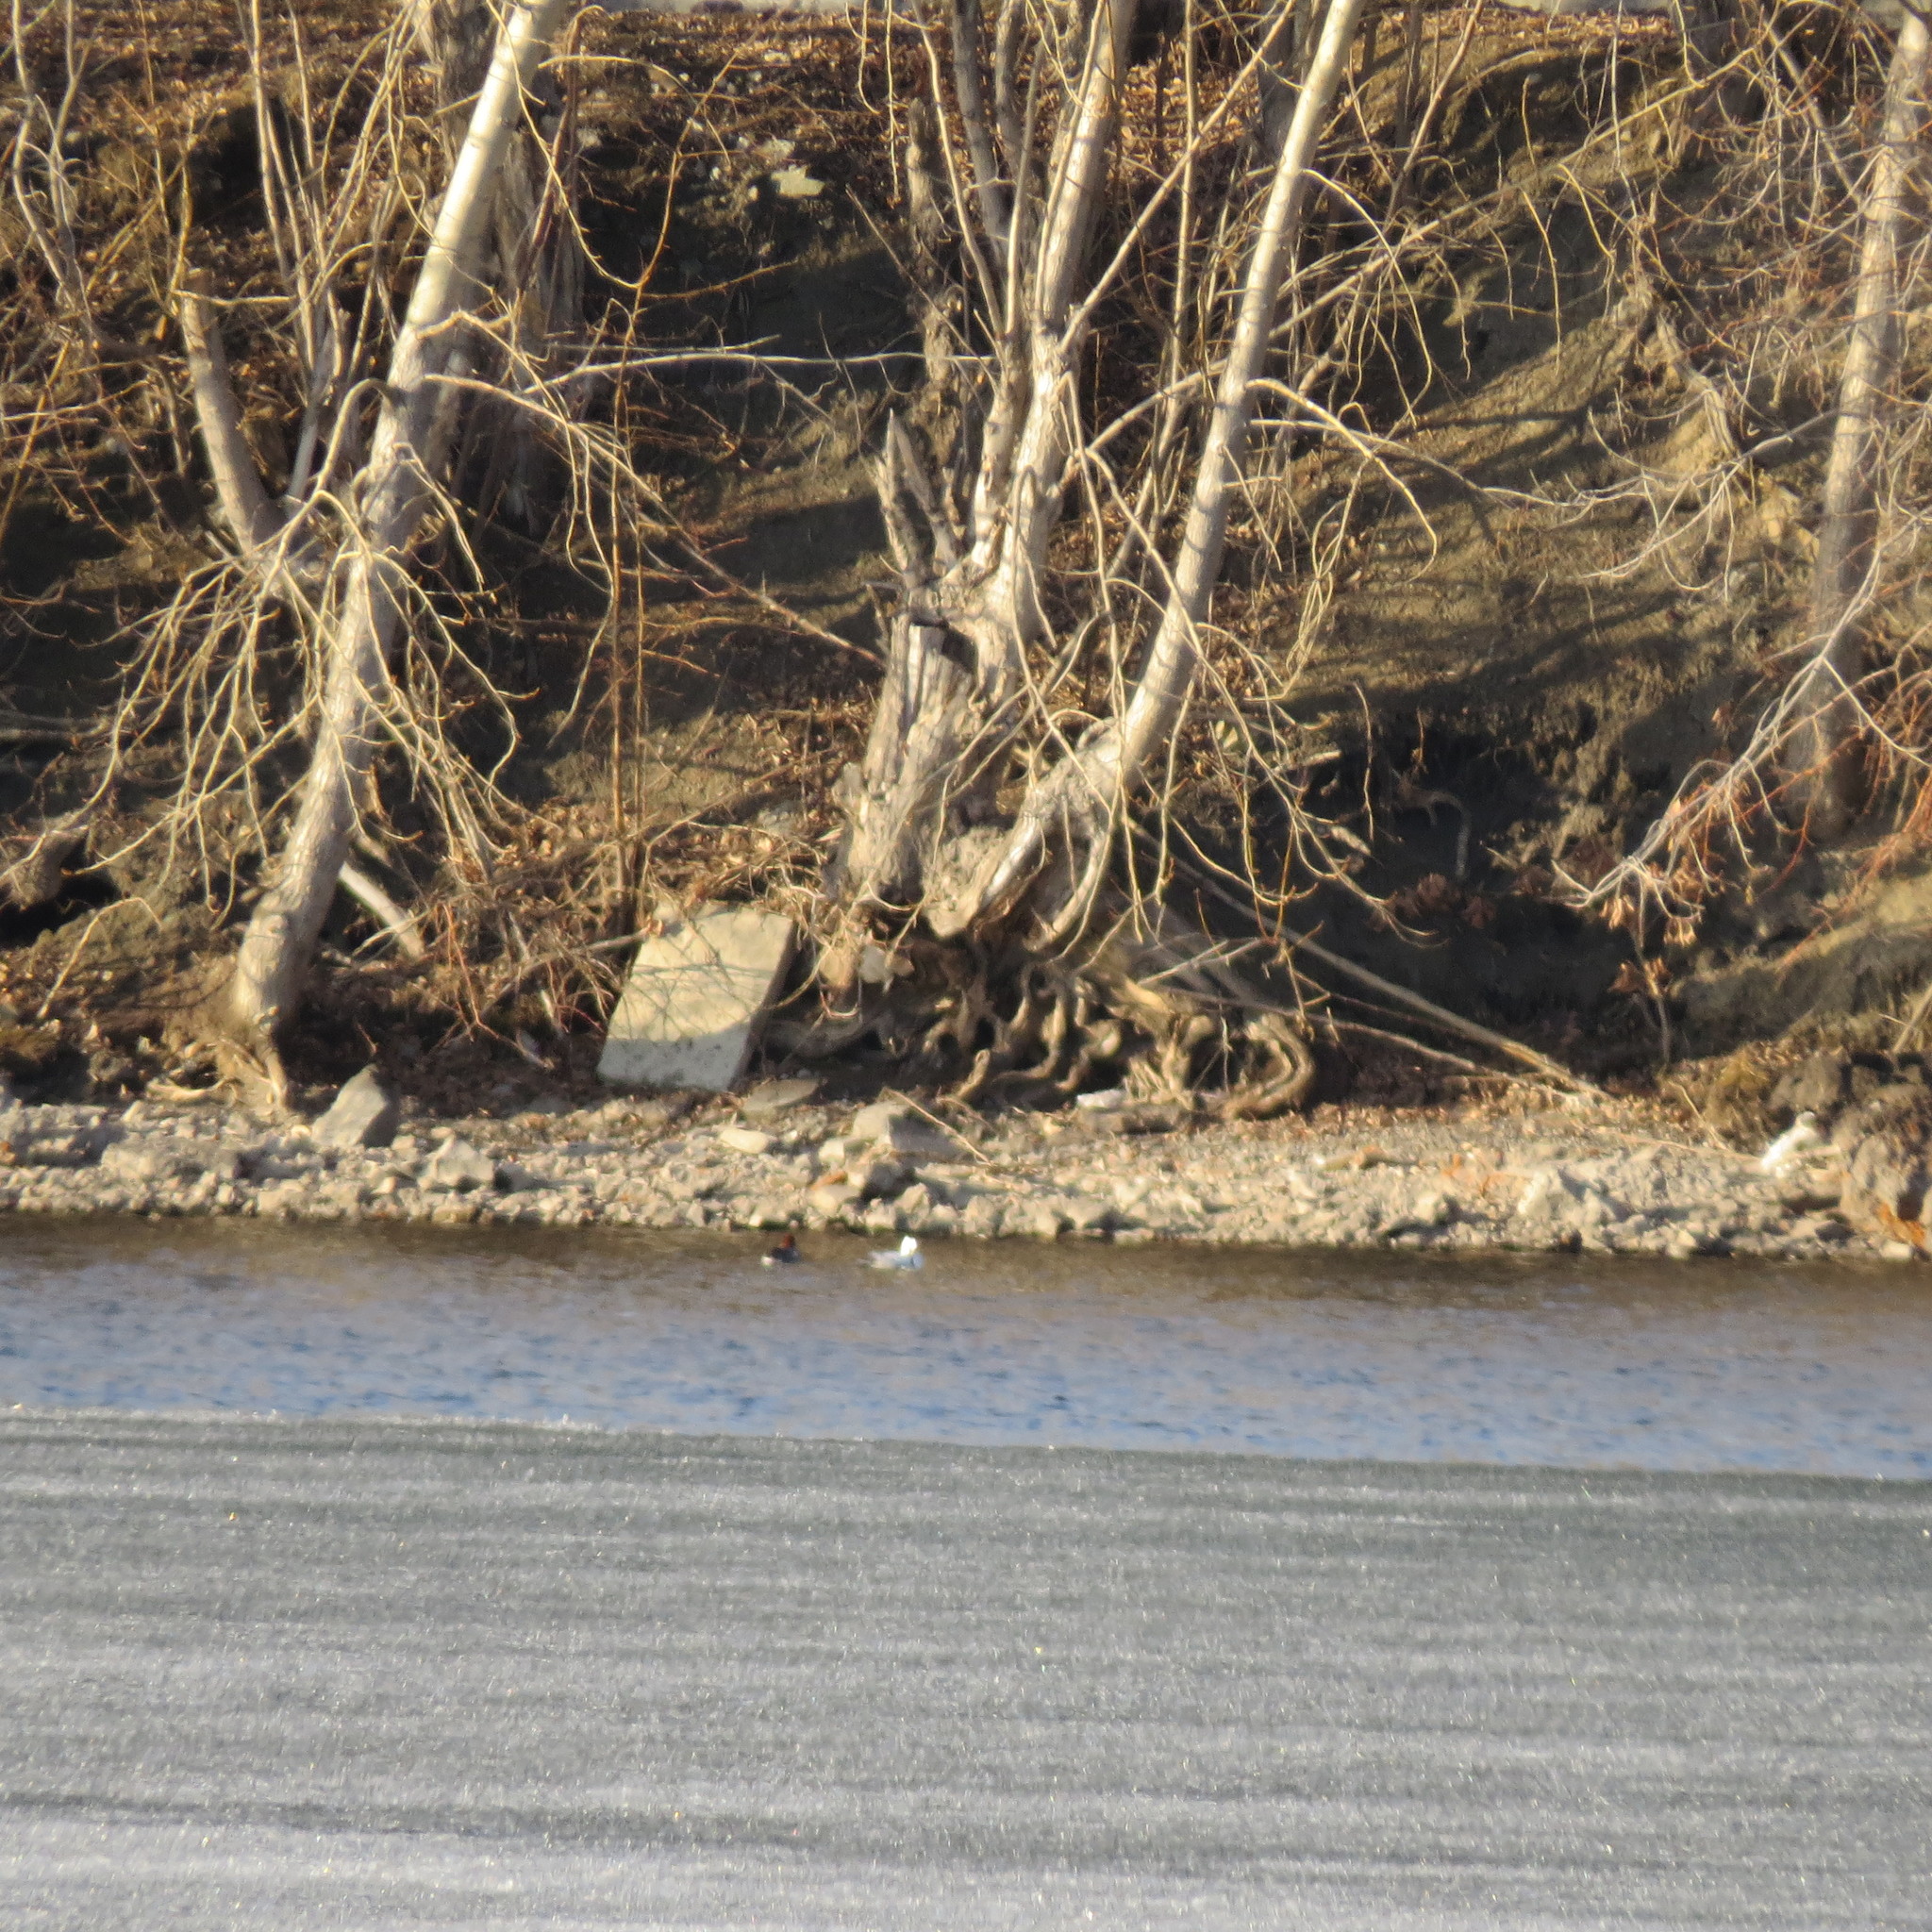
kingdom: Animalia
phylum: Chordata
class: Aves
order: Anseriformes
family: Anatidae
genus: Mergellus
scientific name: Mergellus albellus
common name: Smew
